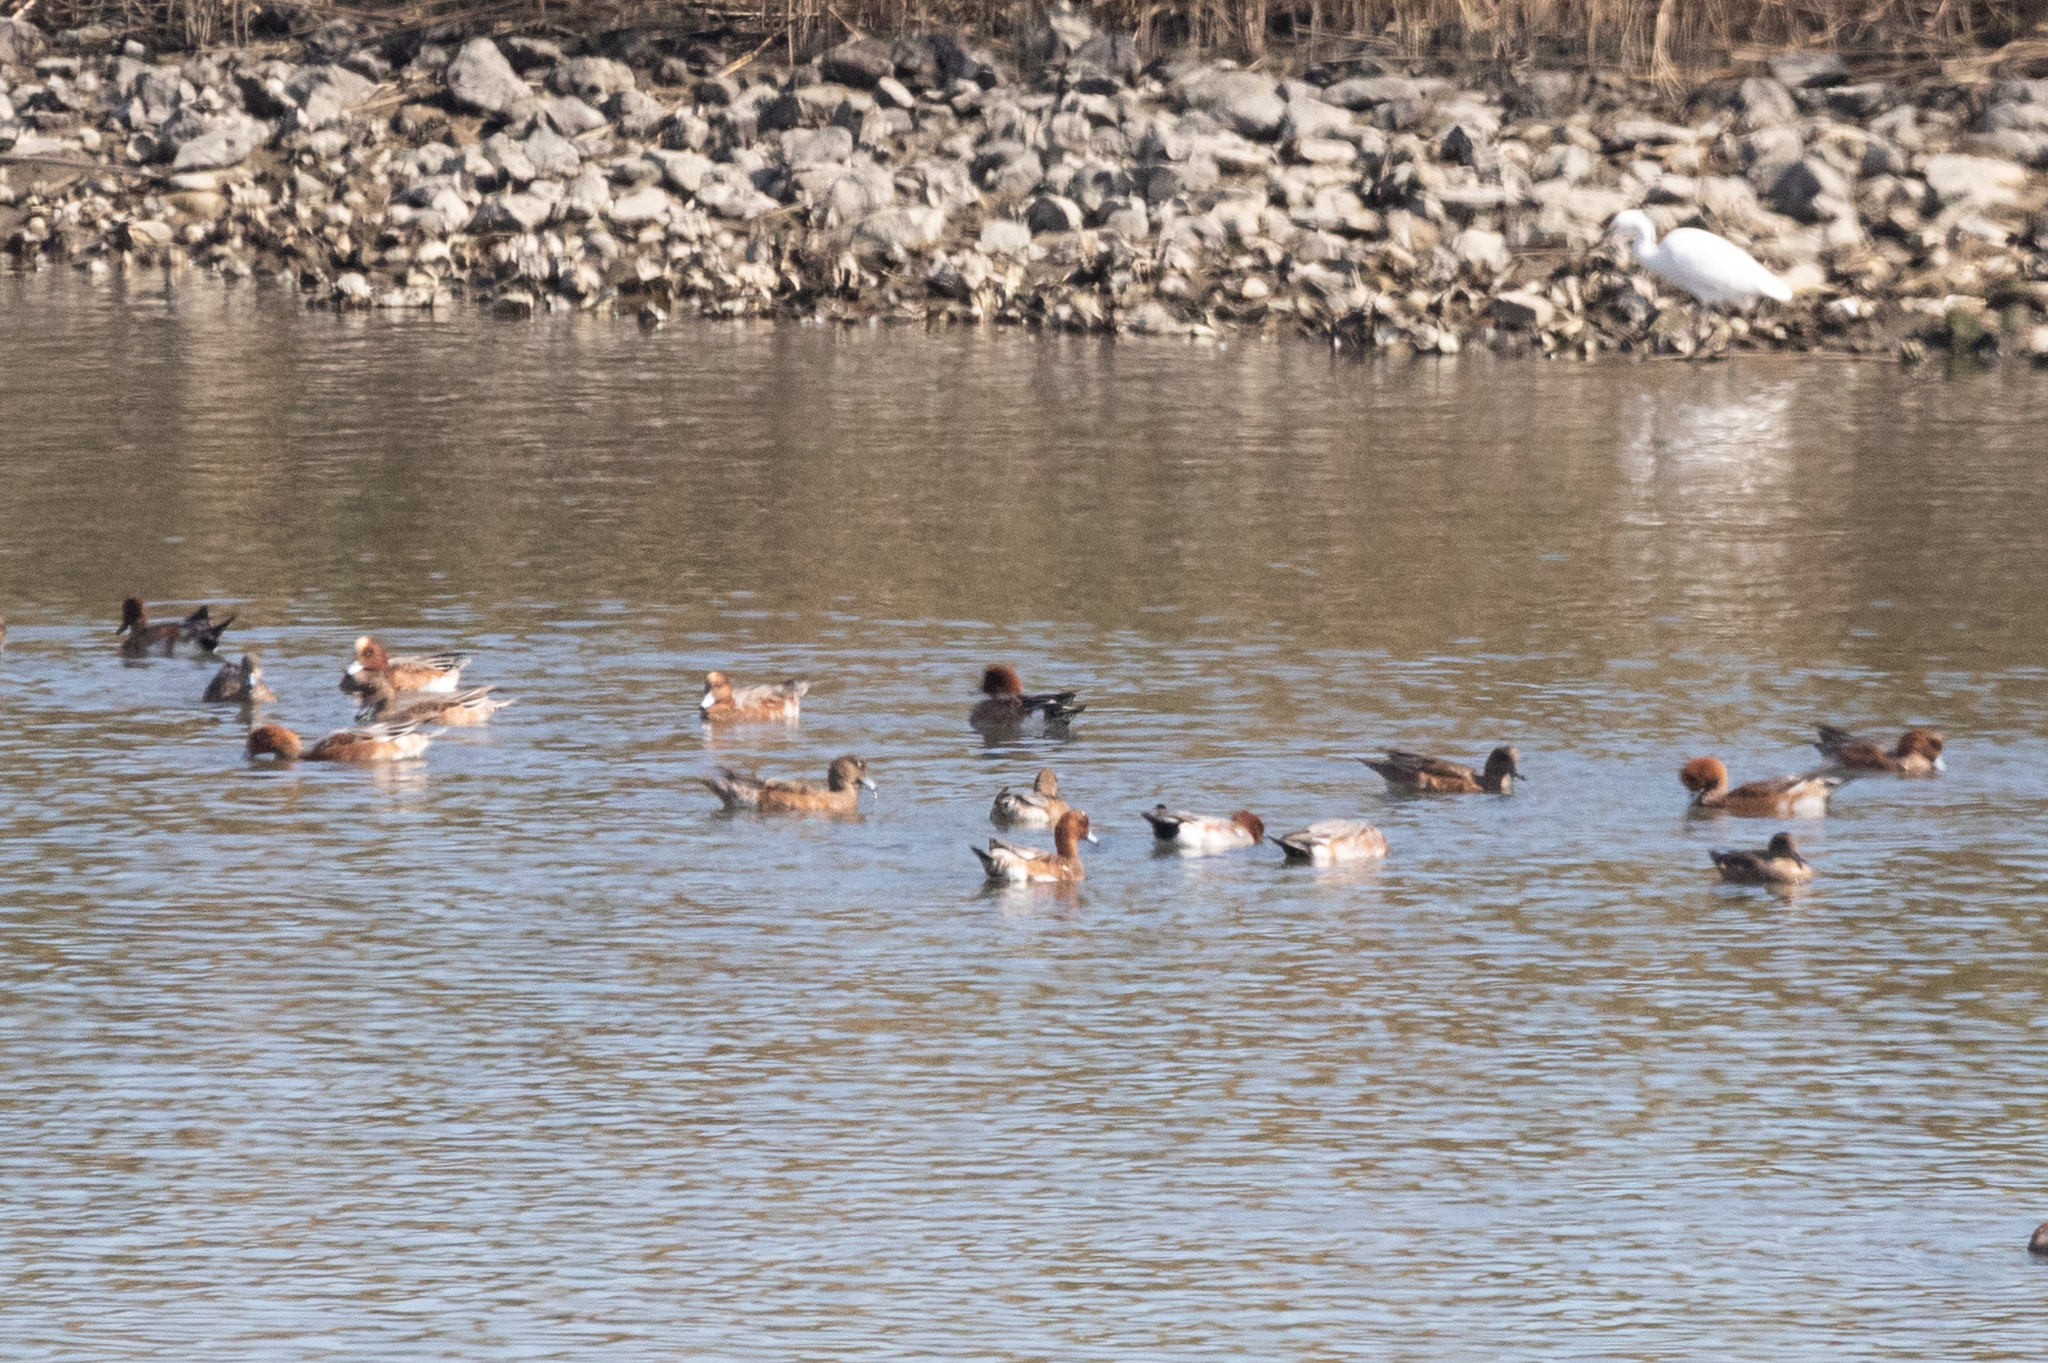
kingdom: Animalia
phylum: Chordata
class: Aves
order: Anseriformes
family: Anatidae
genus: Mareca
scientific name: Mareca penelope
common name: Eurasian wigeon
